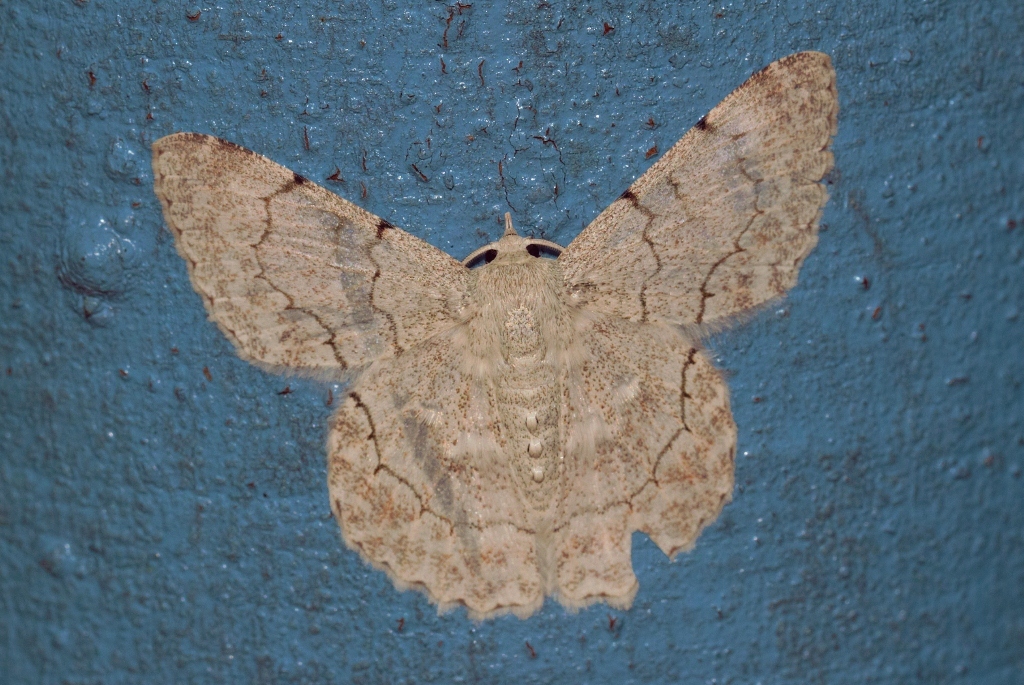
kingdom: Animalia
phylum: Arthropoda
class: Insecta
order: Lepidoptera
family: Geometridae
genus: Pingasa
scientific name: Pingasa rhadamaria
